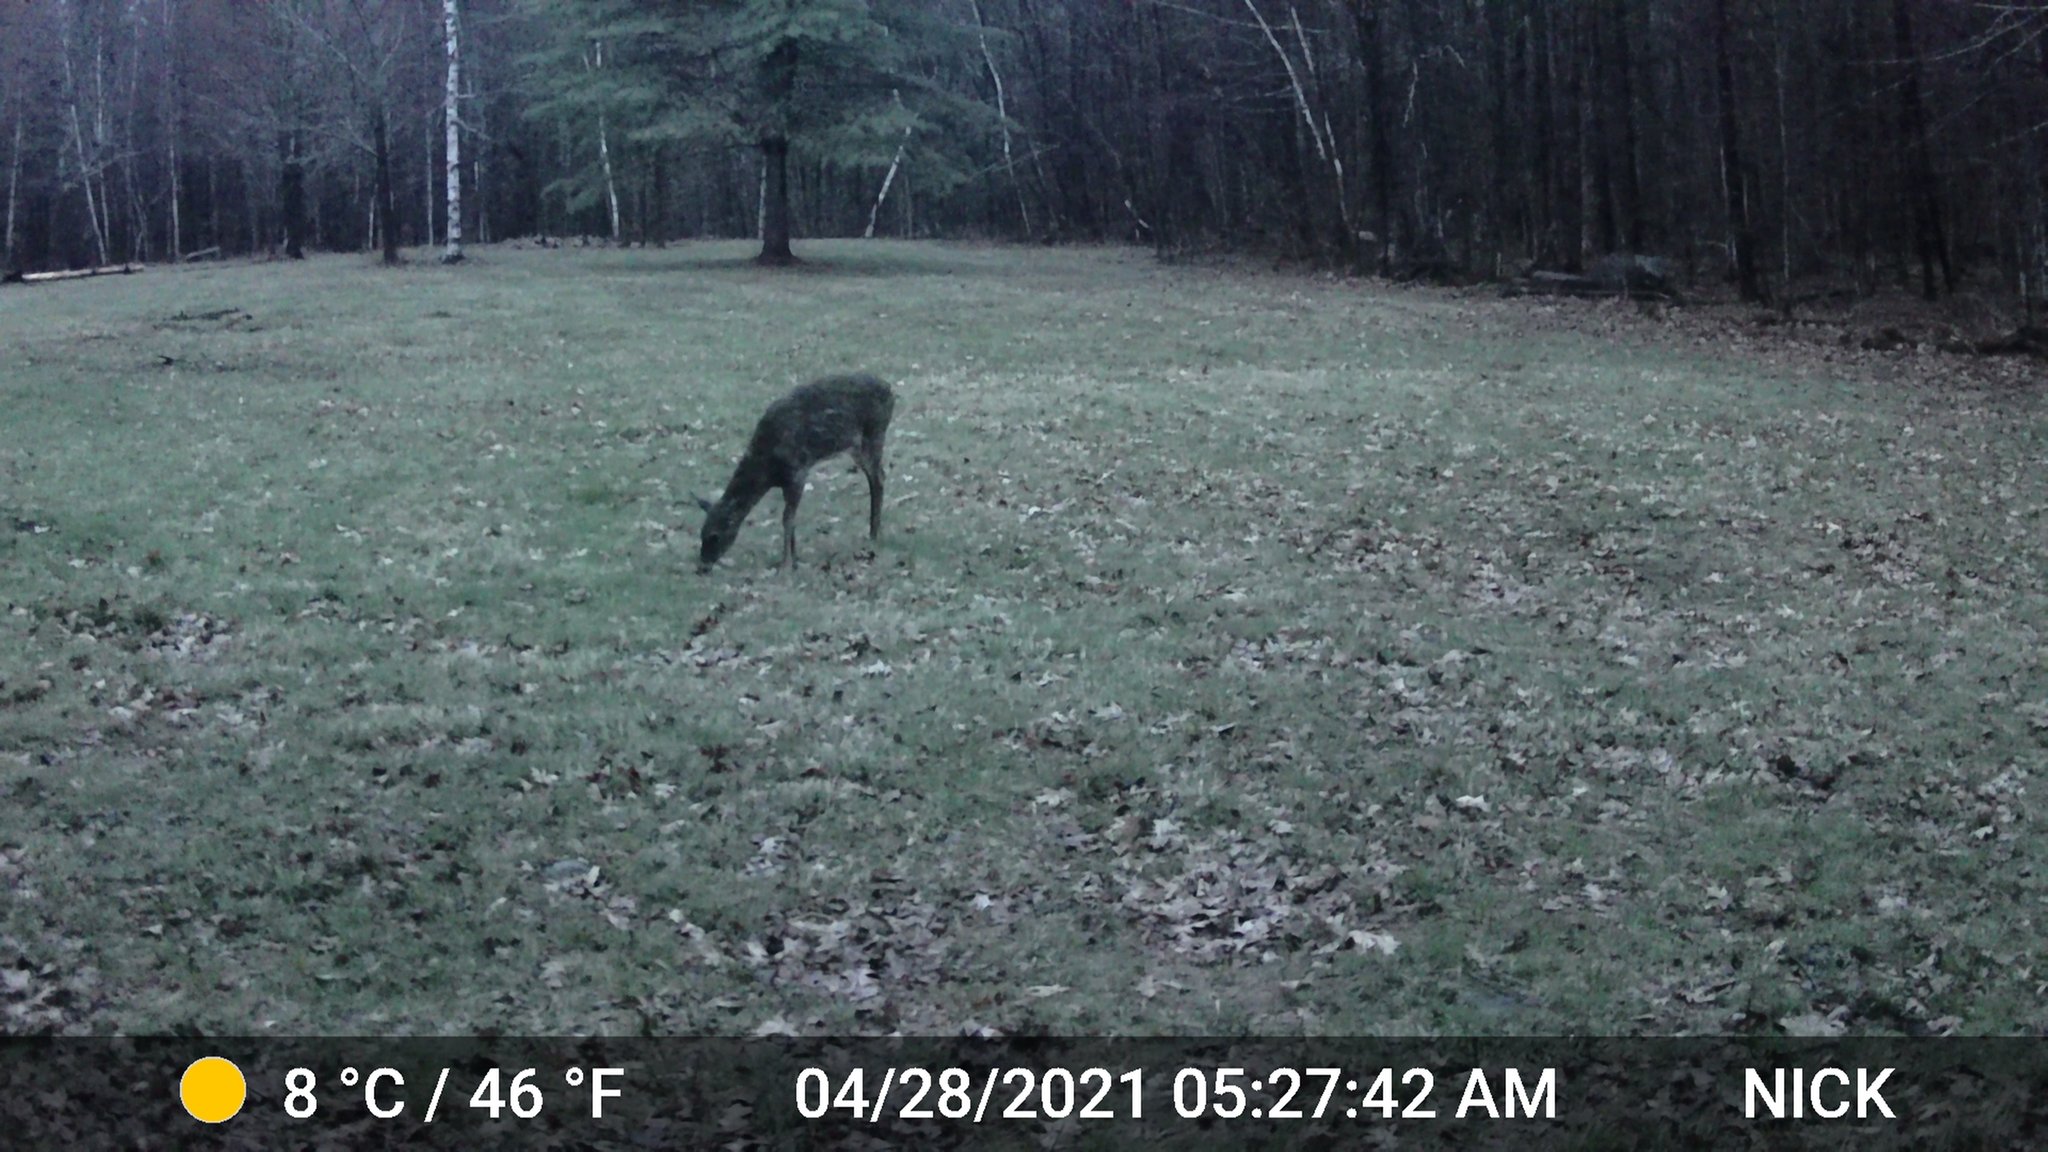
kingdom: Animalia
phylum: Chordata
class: Mammalia
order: Artiodactyla
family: Cervidae
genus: Odocoileus
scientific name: Odocoileus virginianus
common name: White-tailed deer
